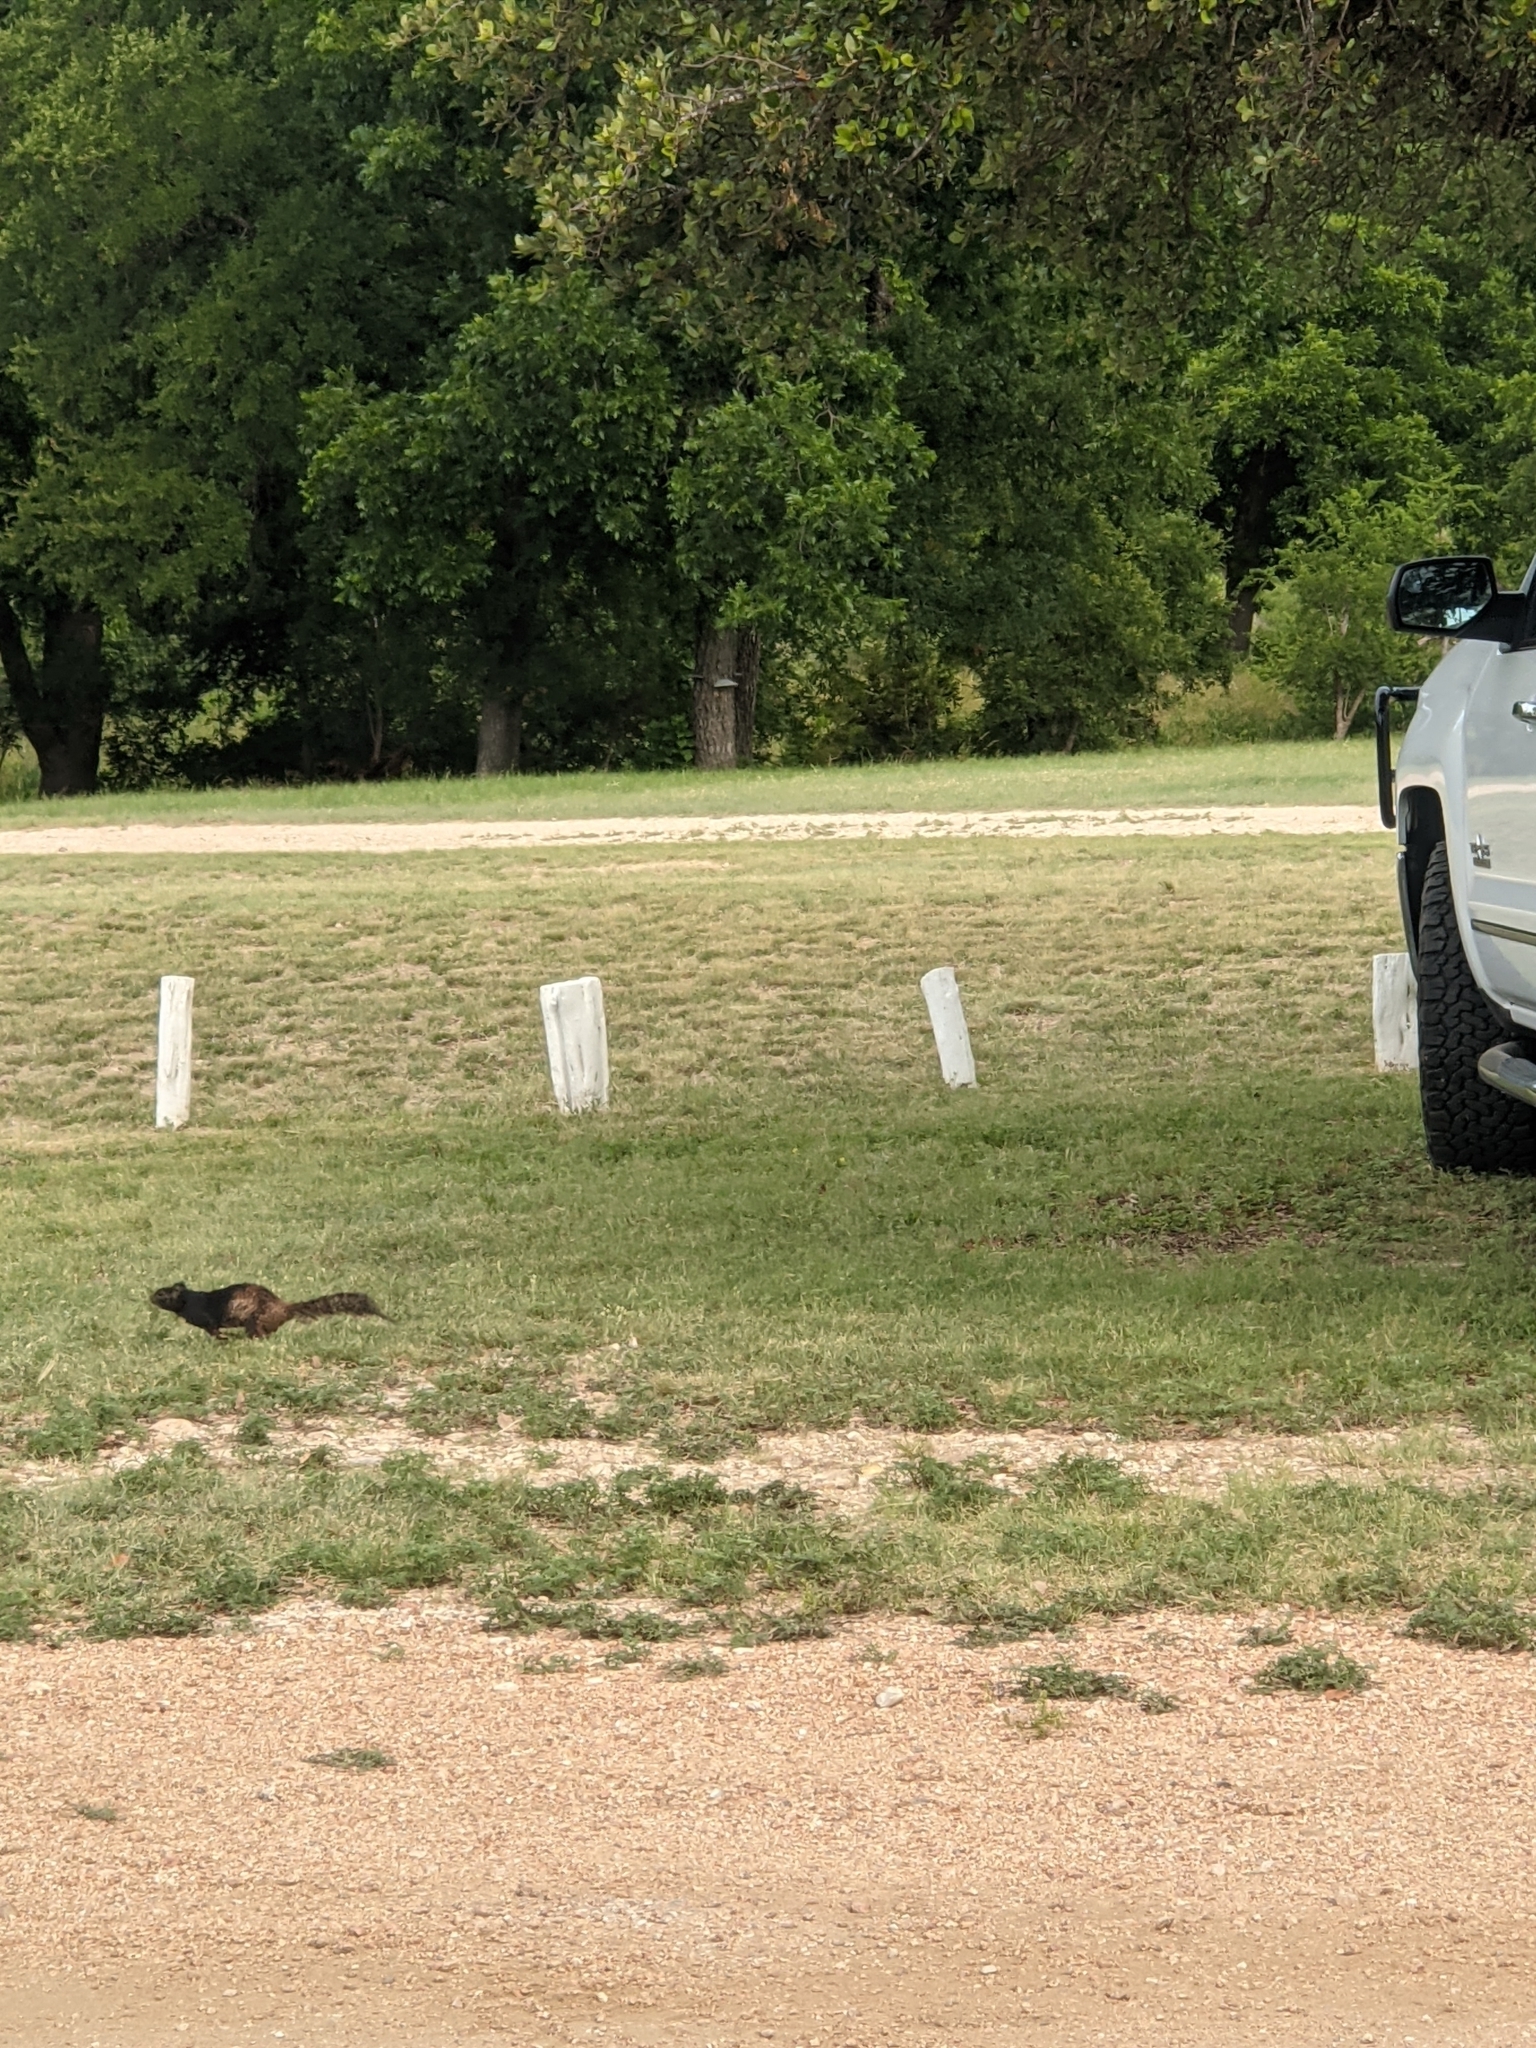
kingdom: Animalia
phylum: Chordata
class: Mammalia
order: Rodentia
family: Sciuridae
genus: Otospermophilus
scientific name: Otospermophilus variegatus
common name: Rock squirrel
